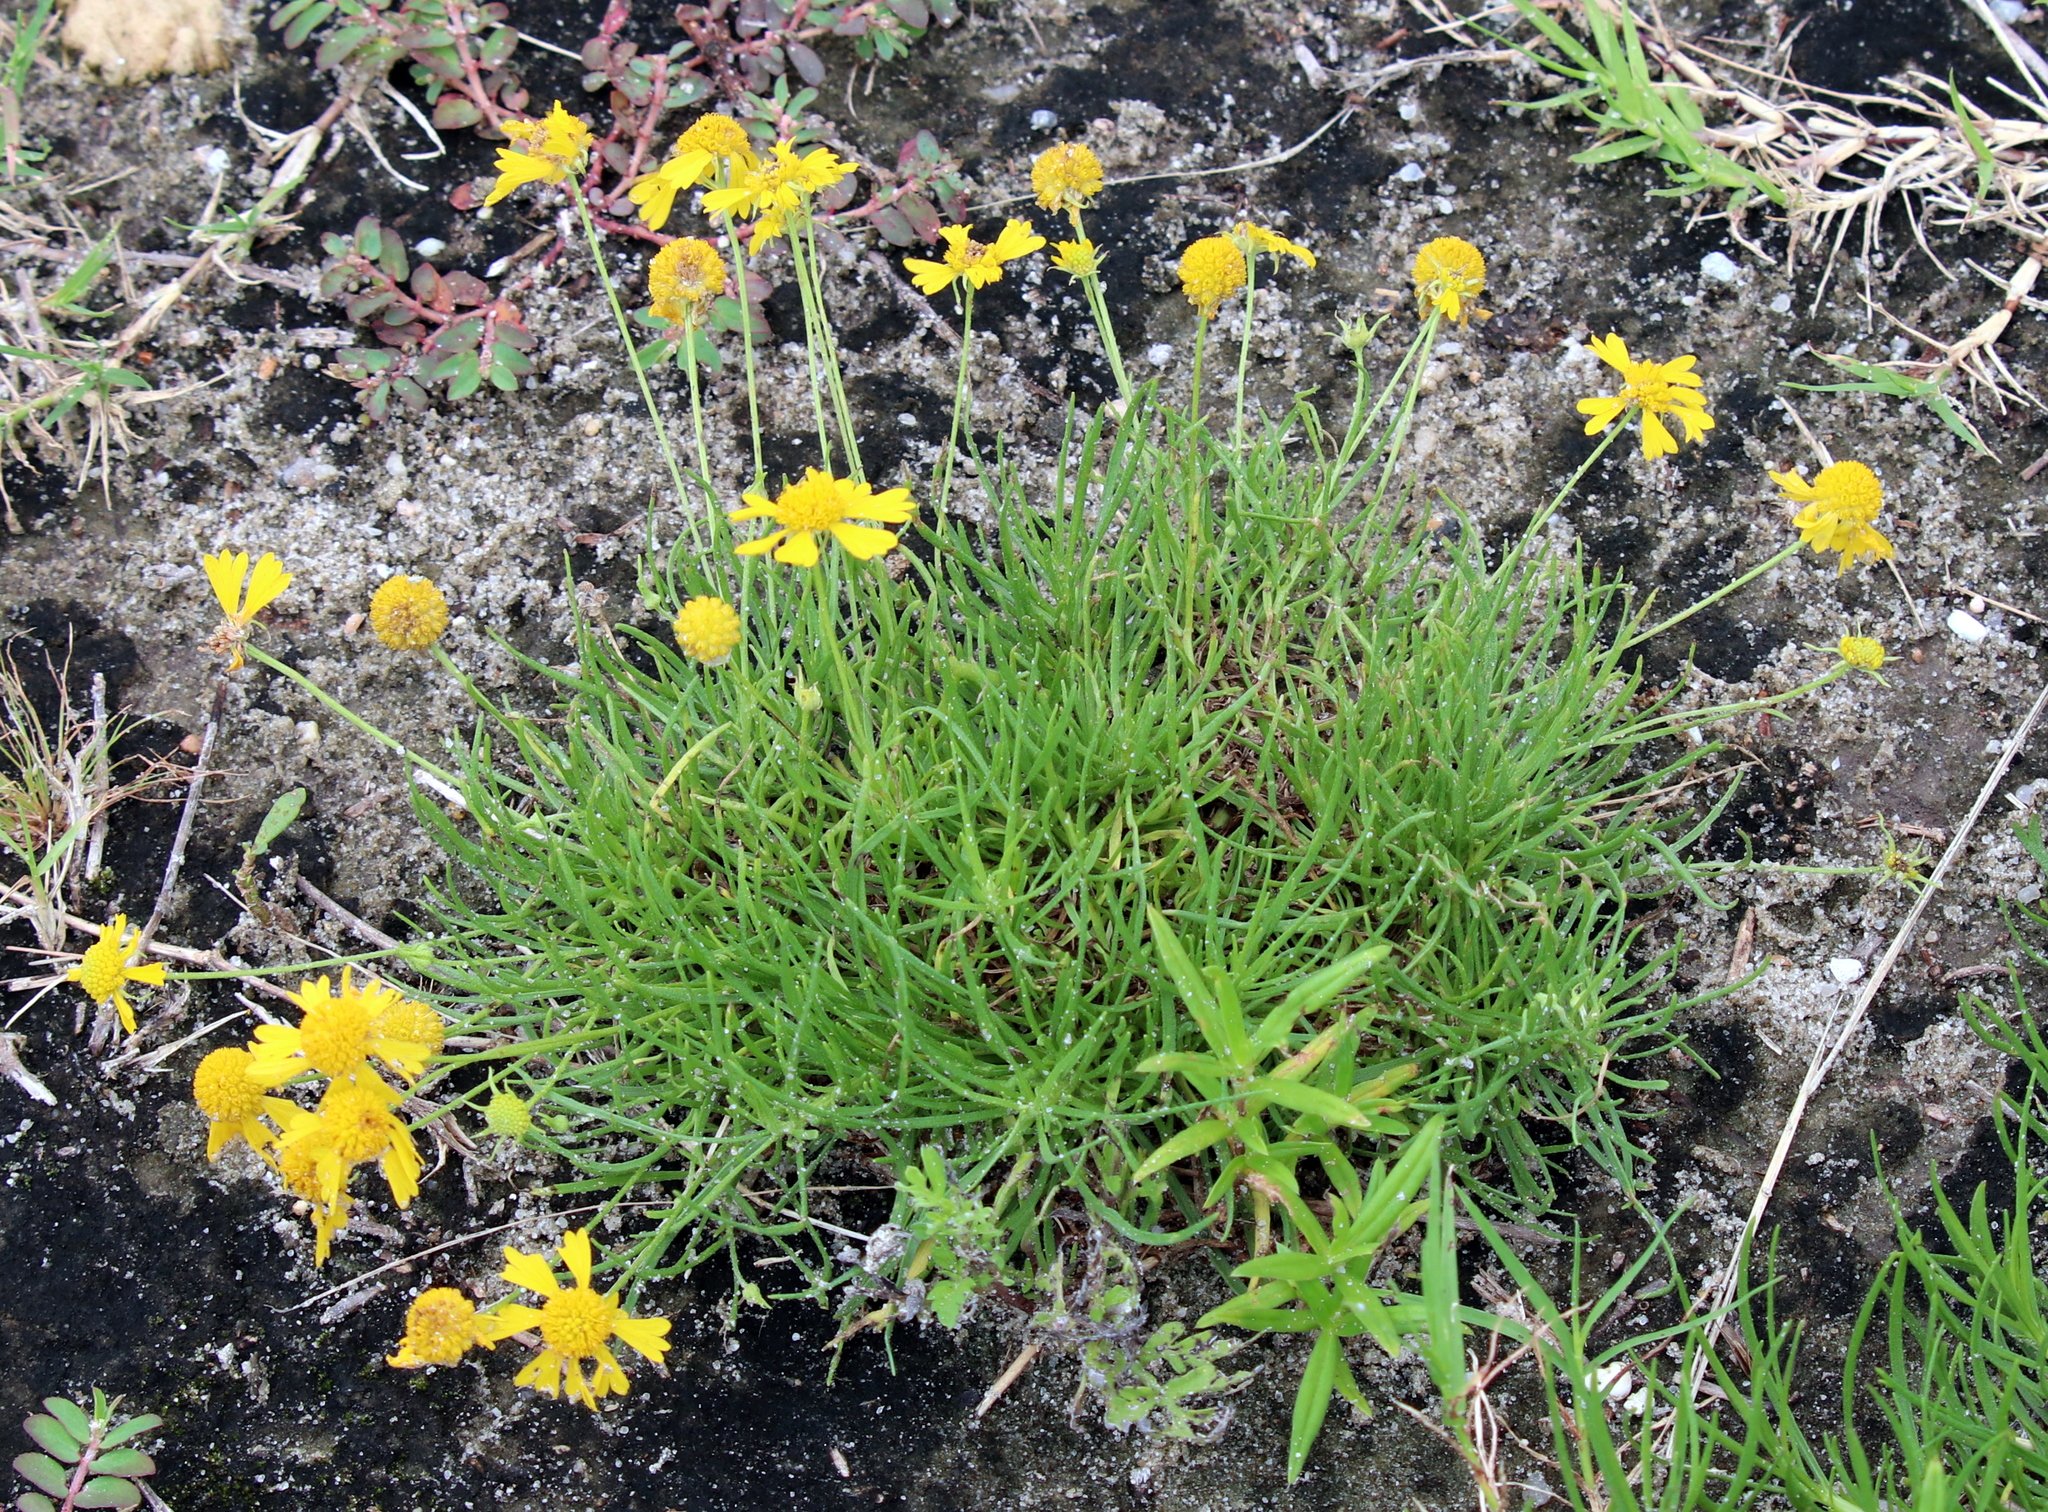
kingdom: Plantae
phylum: Tracheophyta
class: Magnoliopsida
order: Asterales
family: Asteraceae
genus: Helenium
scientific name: Helenium amarum
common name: Bitter sneezeweed
